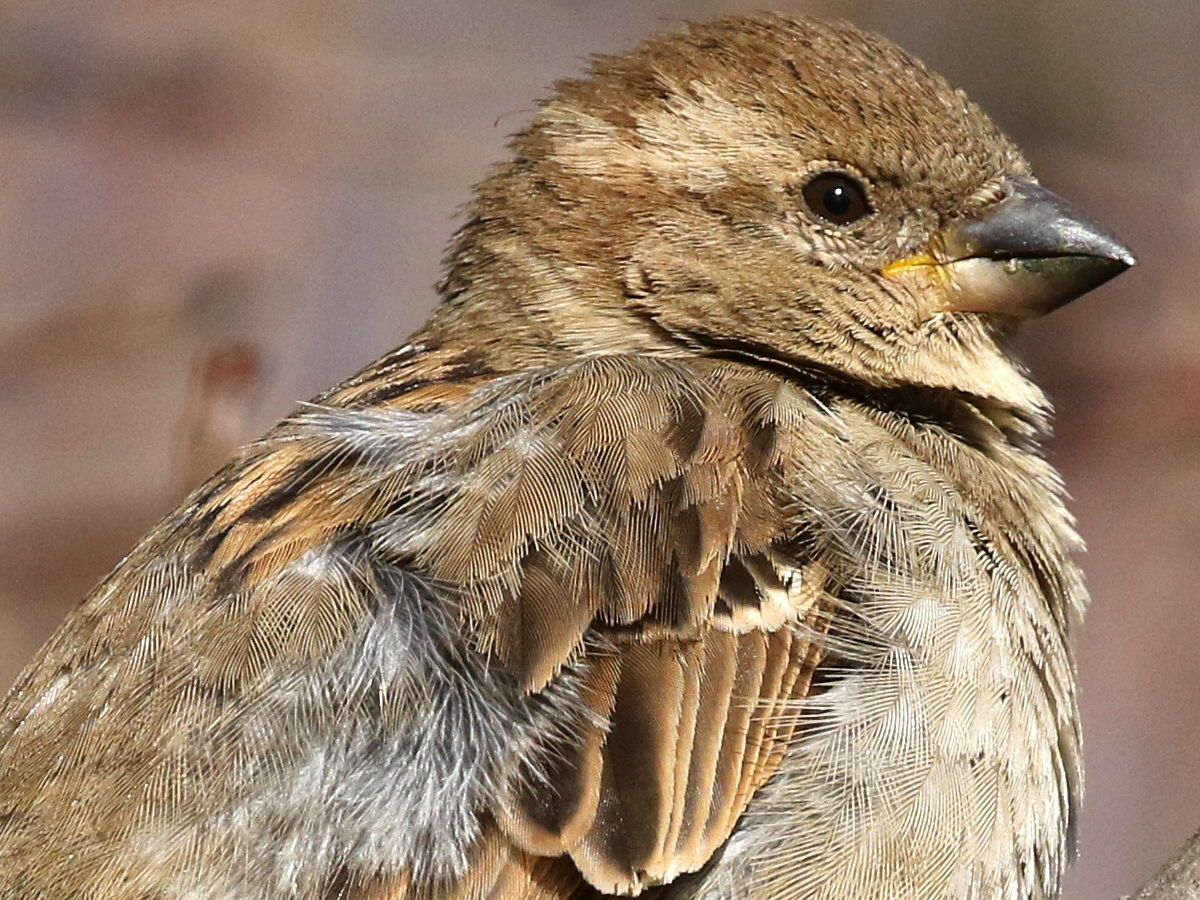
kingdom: Animalia
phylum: Chordata
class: Aves
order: Passeriformes
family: Passeridae
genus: Passer
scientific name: Passer domesticus
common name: House sparrow
